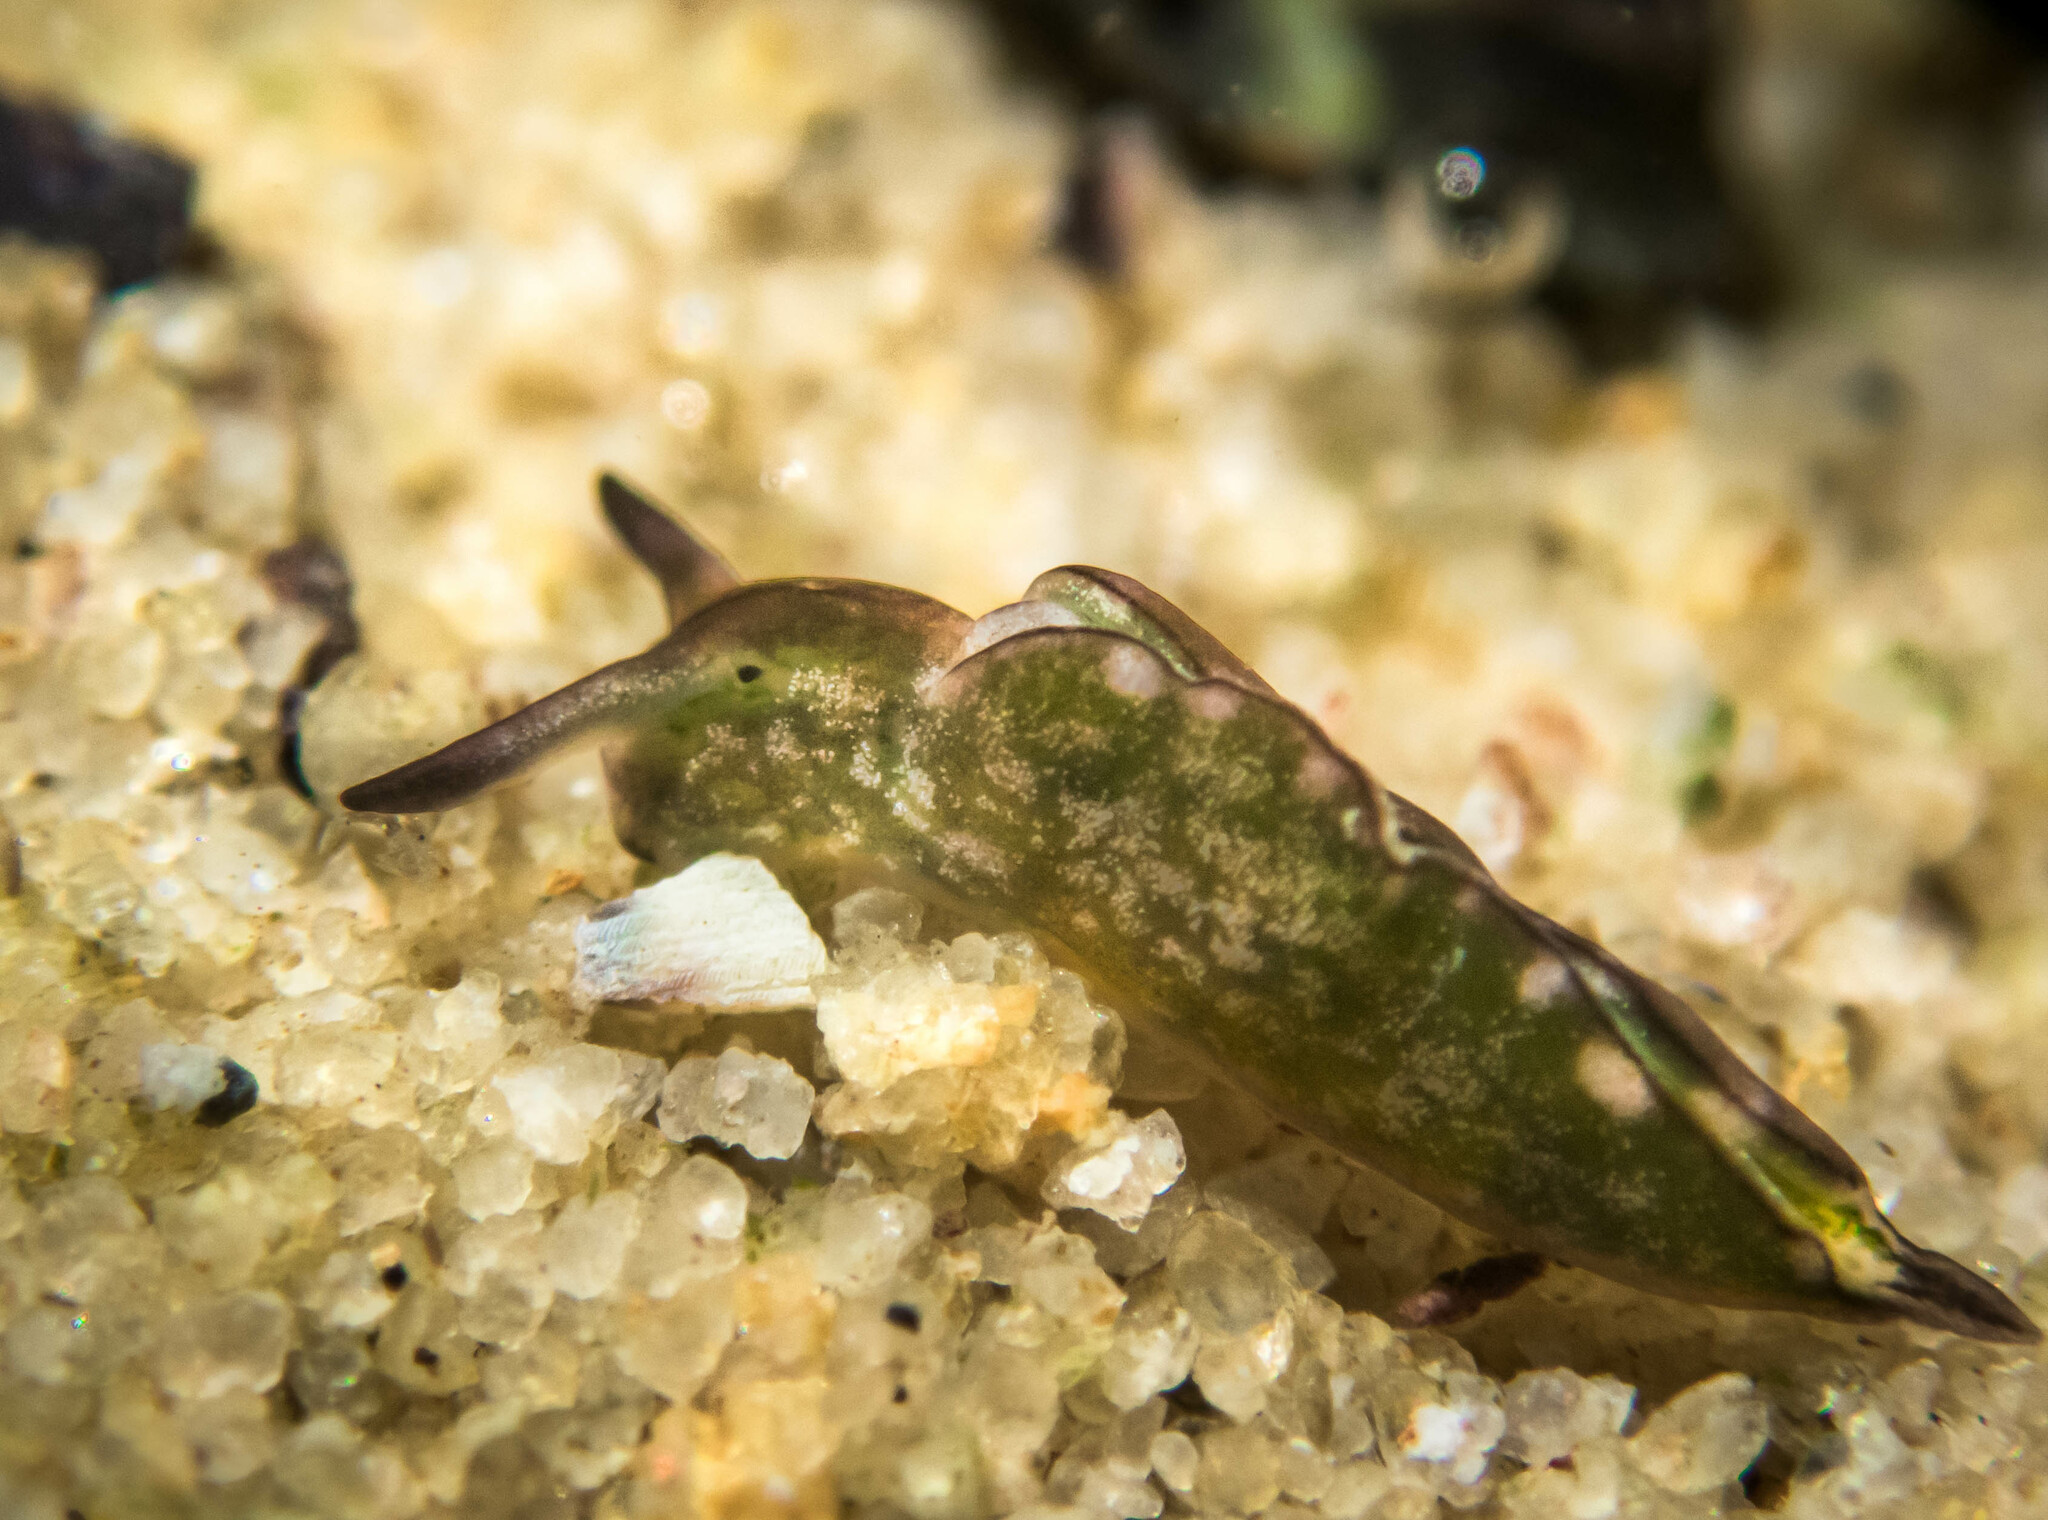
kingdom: Animalia
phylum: Mollusca
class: Gastropoda
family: Plakobranchidae
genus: Elysia
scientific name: Elysia coodgeensis
